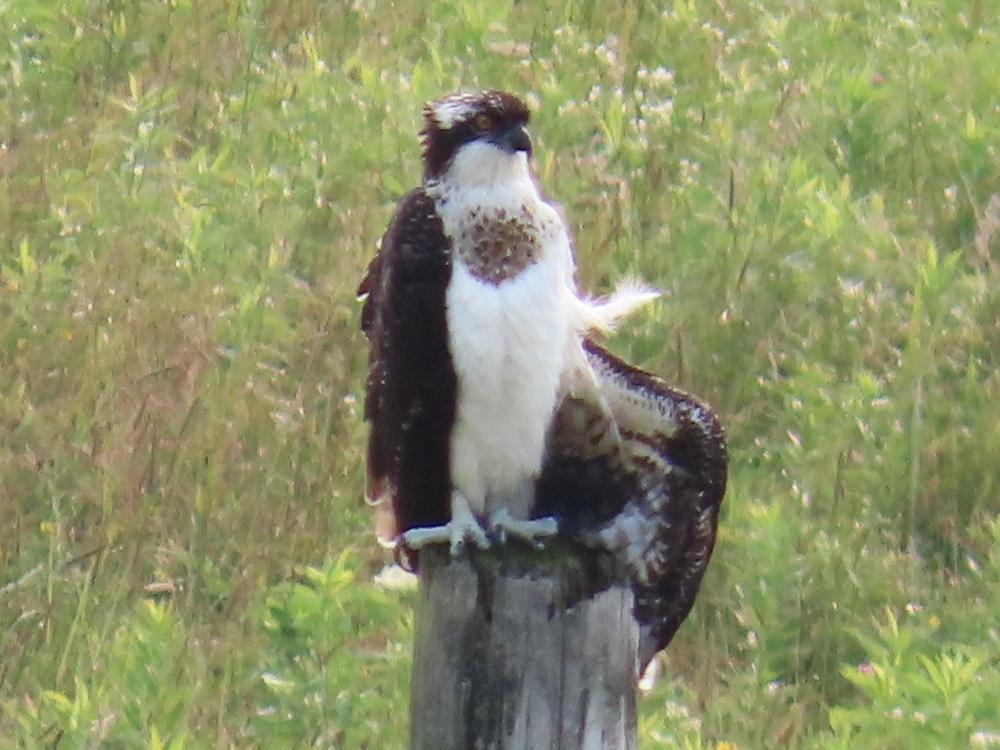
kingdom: Animalia
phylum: Chordata
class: Aves
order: Accipitriformes
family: Pandionidae
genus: Pandion
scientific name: Pandion haliaetus
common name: Osprey
